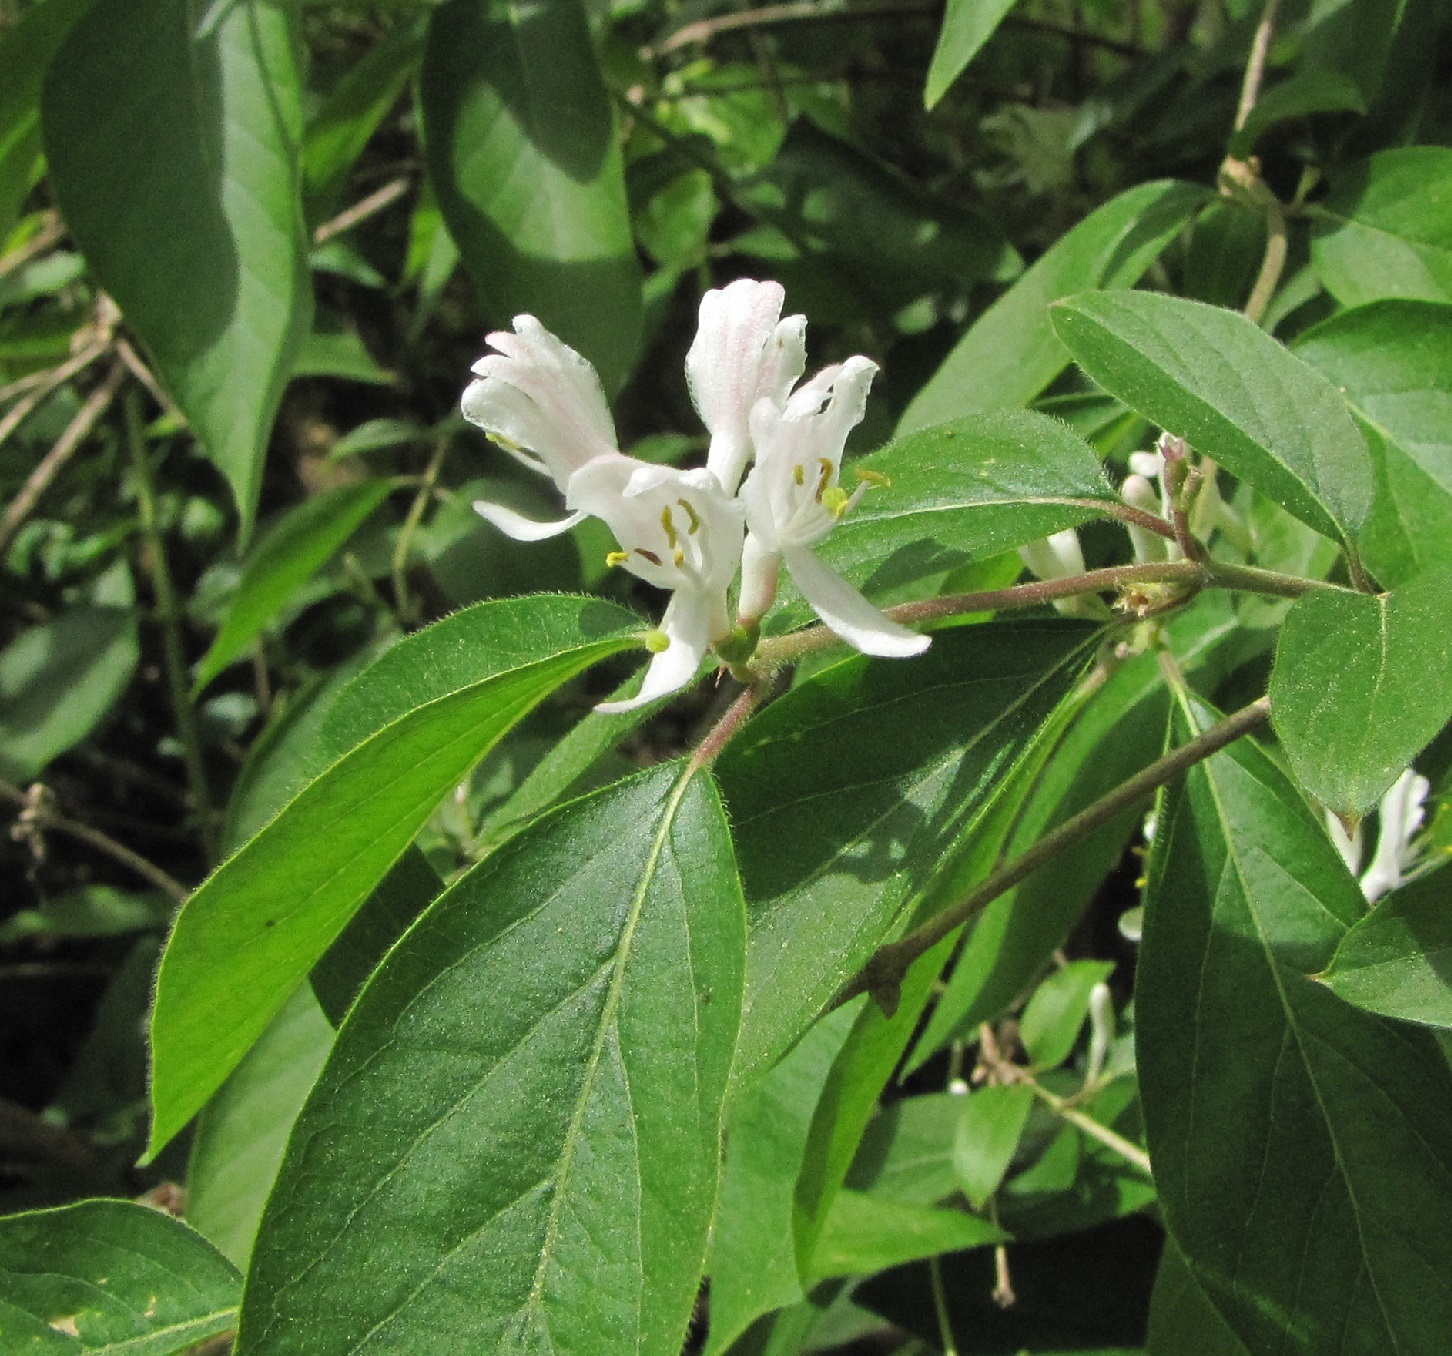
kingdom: Plantae
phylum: Tracheophyta
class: Magnoliopsida
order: Dipsacales
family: Caprifoliaceae
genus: Lonicera
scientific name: Lonicera maackii
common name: Amur honeysuckle
